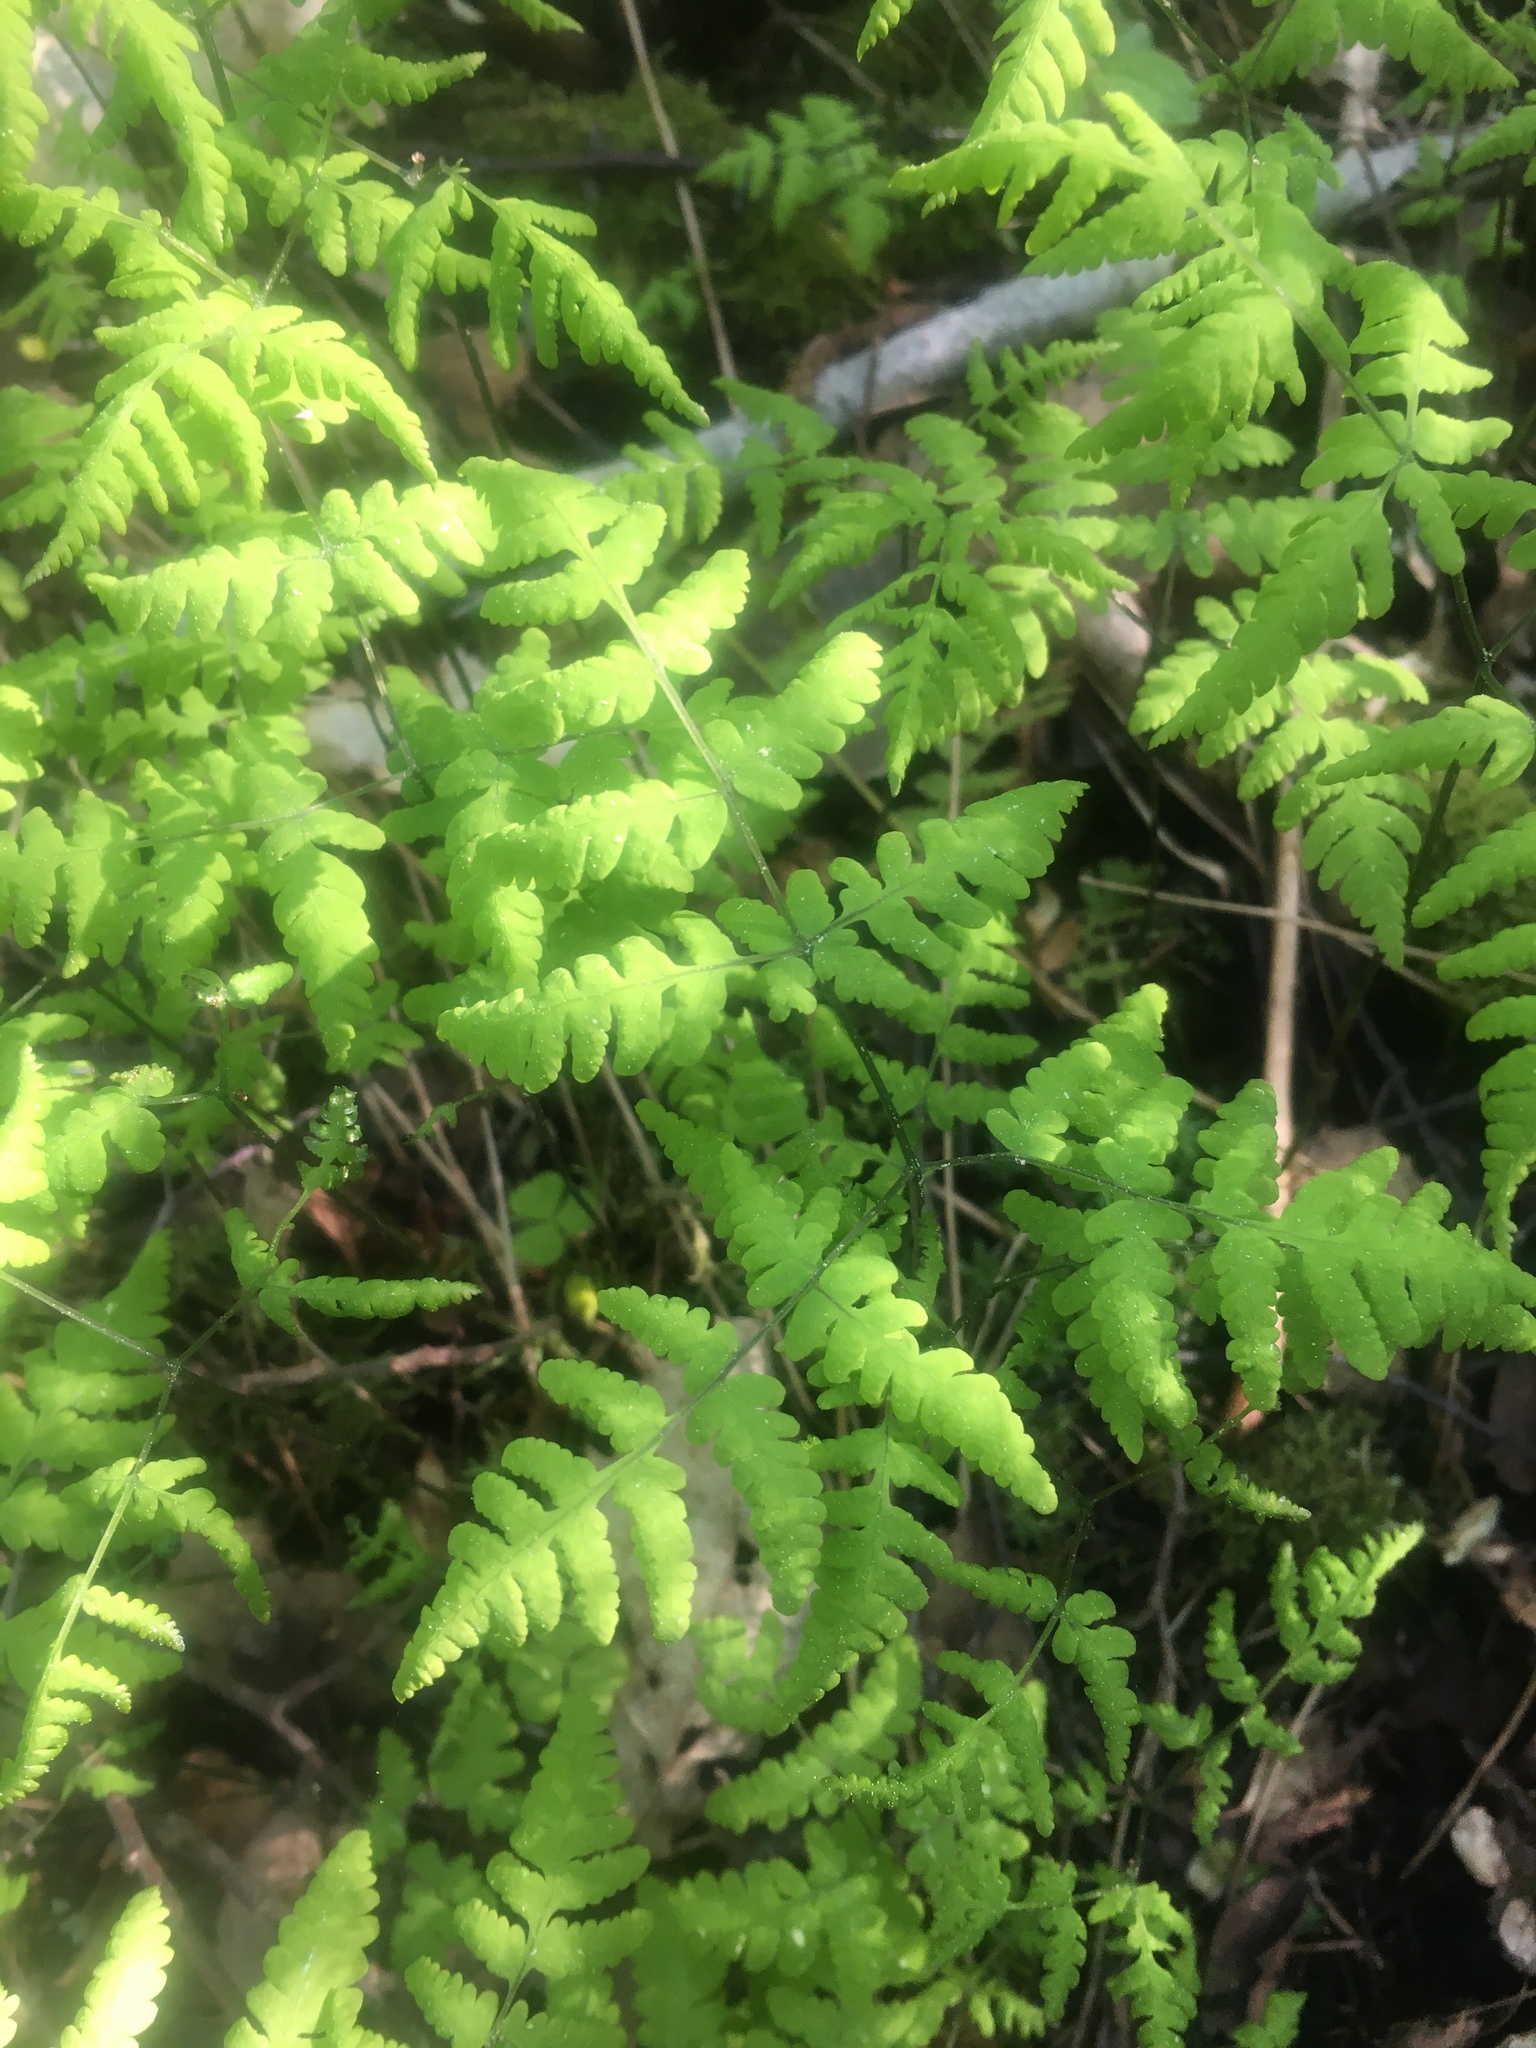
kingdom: Plantae
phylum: Tracheophyta
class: Polypodiopsida
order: Polypodiales
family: Cystopteridaceae
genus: Gymnocarpium
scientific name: Gymnocarpium dryopteris
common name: Oak fern
